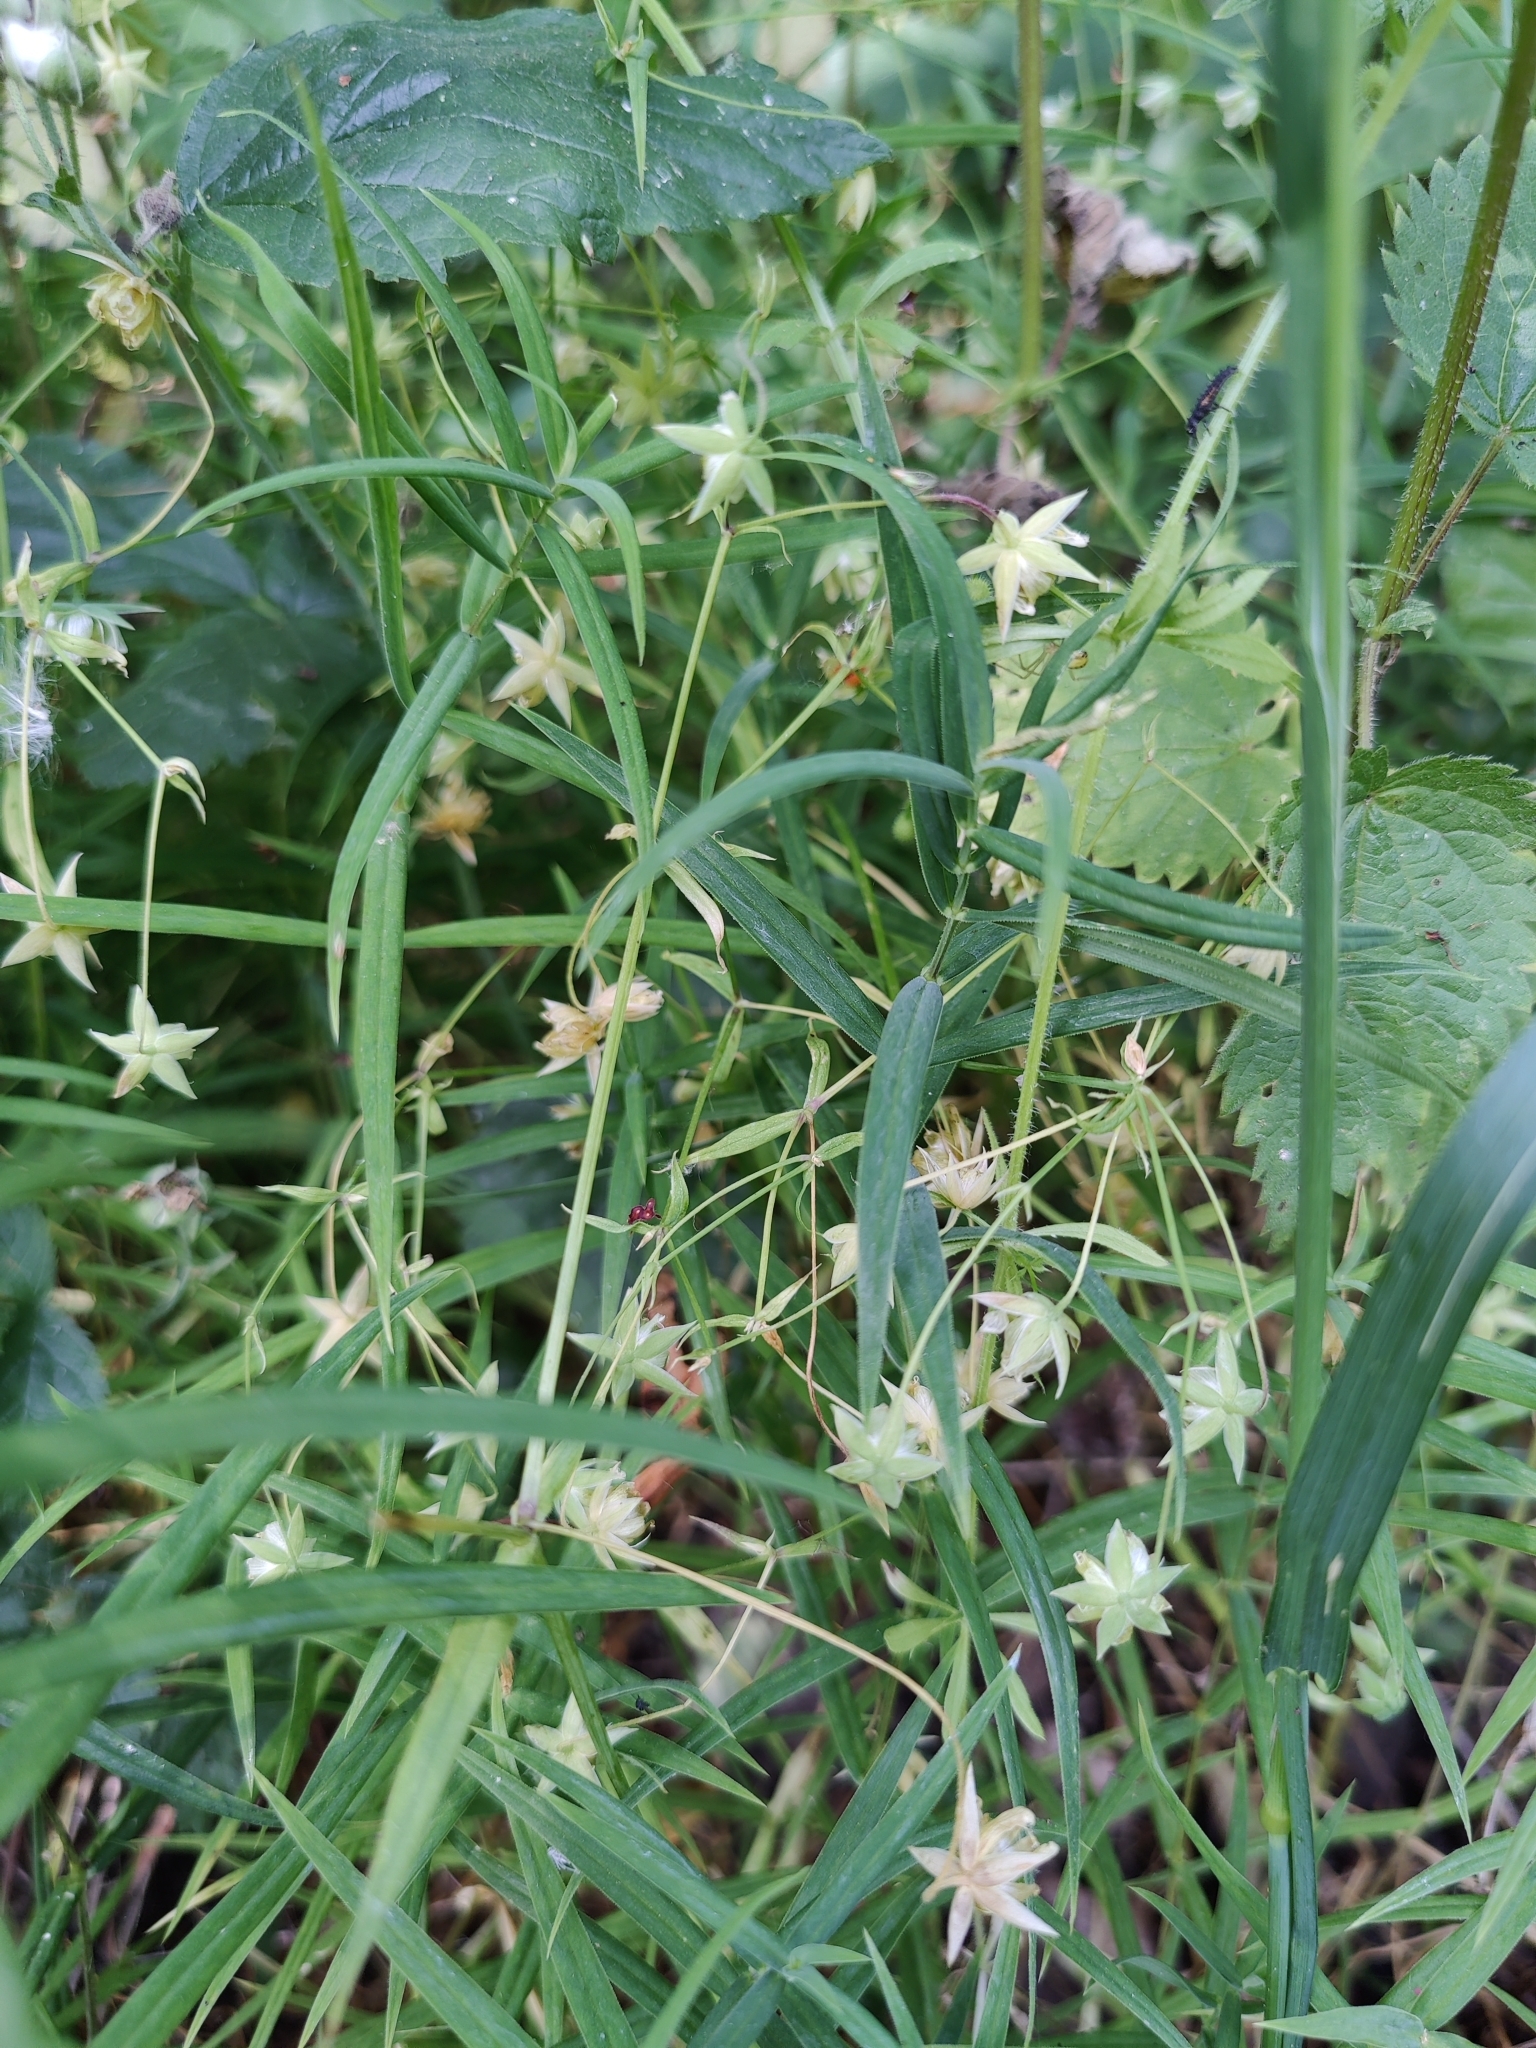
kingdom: Plantae
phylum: Tracheophyta
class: Magnoliopsida
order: Caryophyllales
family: Caryophyllaceae
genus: Rabelera
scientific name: Rabelera holostea
